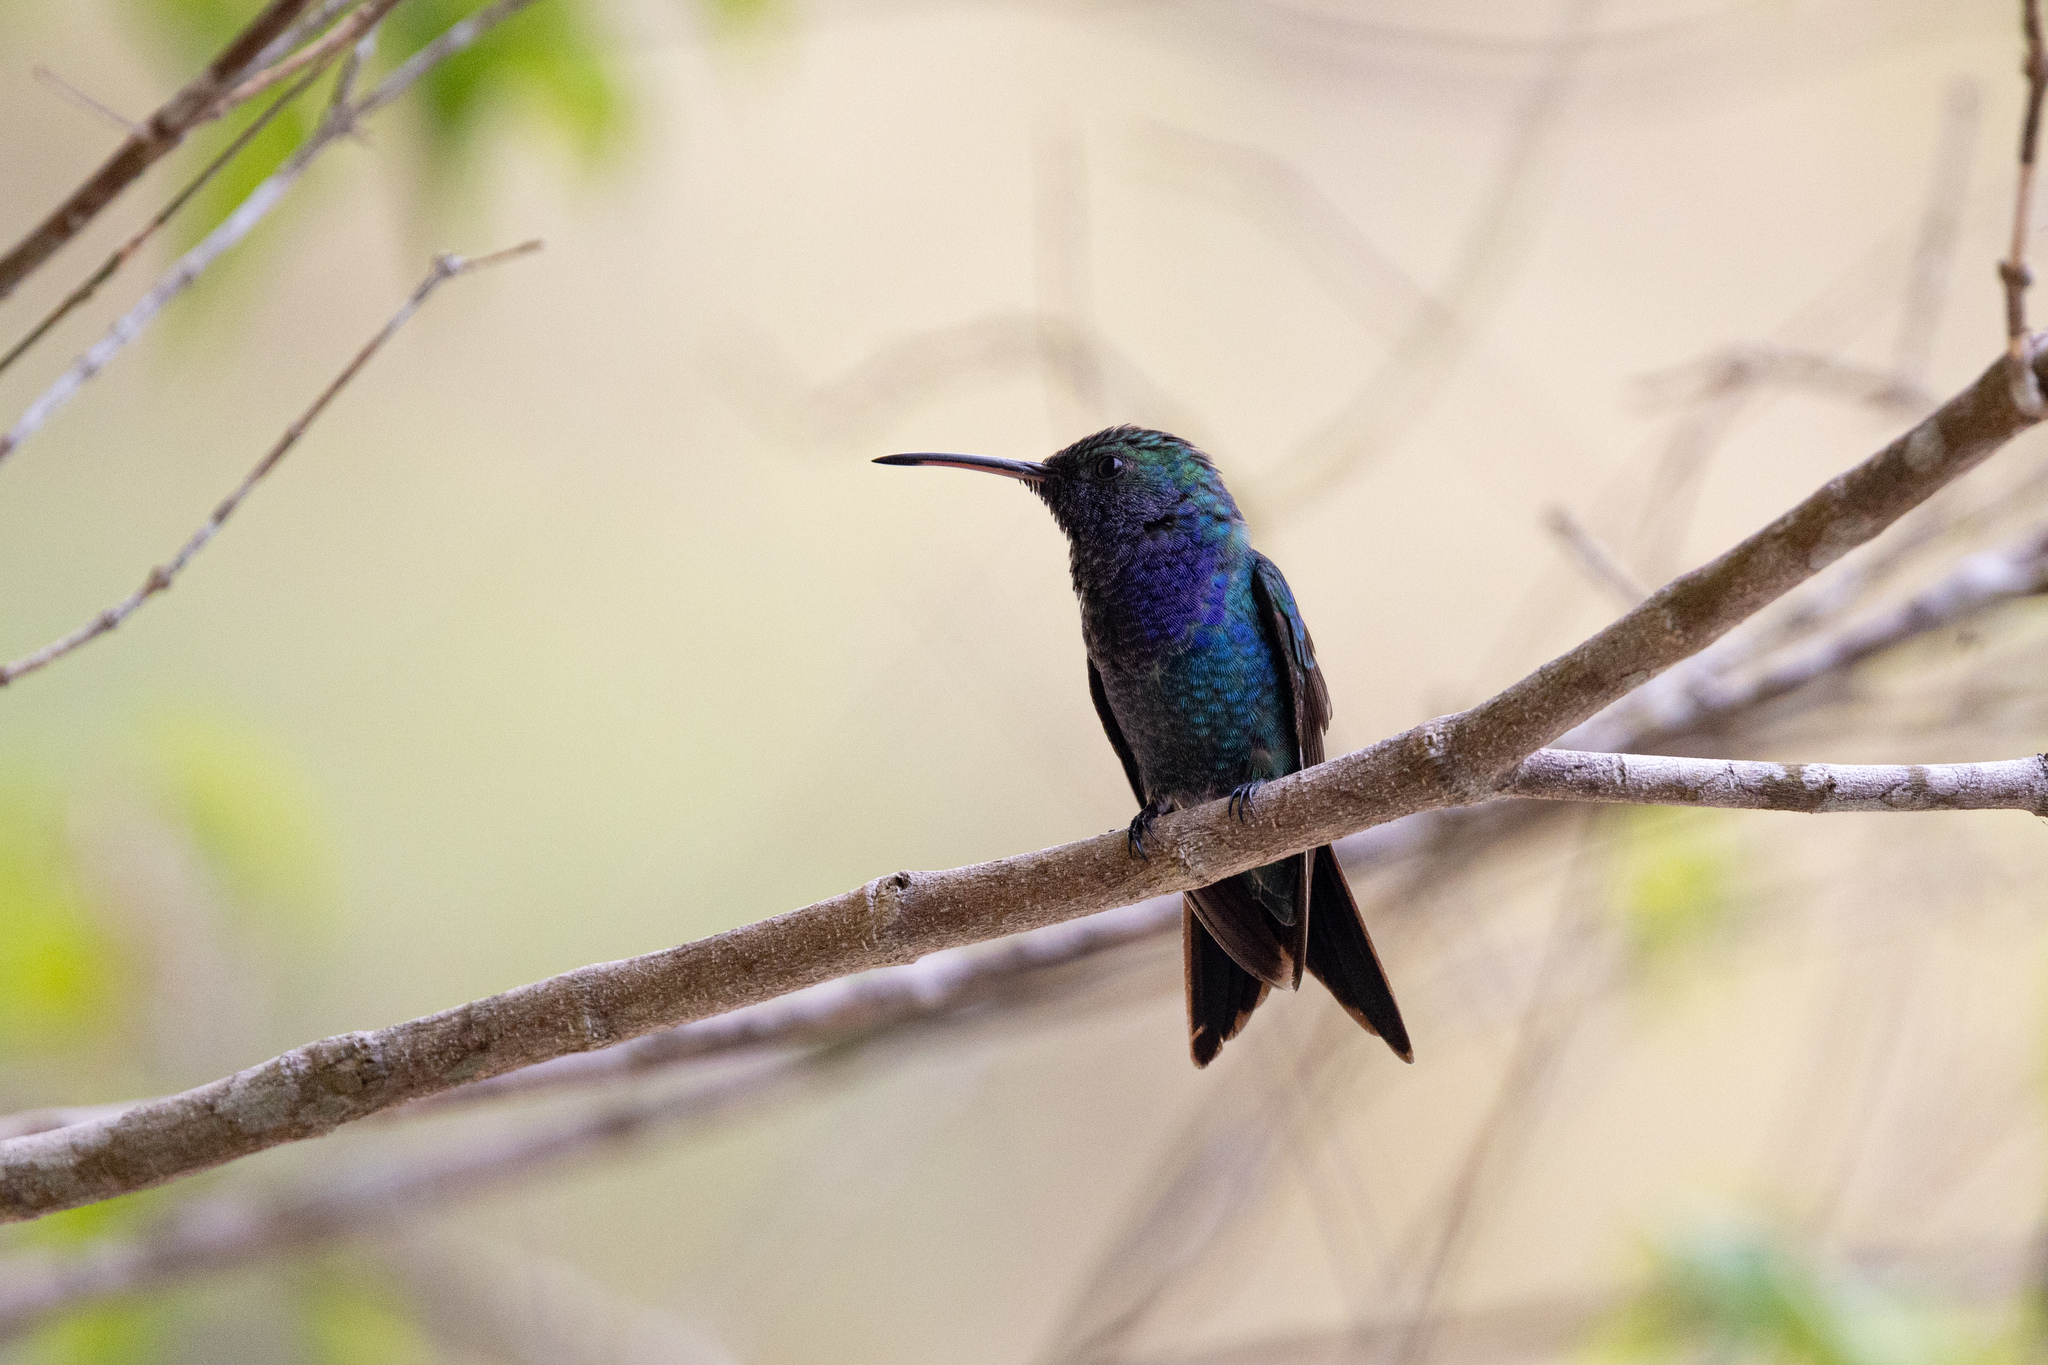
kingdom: Animalia
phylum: Chordata
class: Aves
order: Apodiformes
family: Trochilidae
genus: Chrysuronia
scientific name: Chrysuronia coeruleogularis
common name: Sapphire-throated hummingbird
